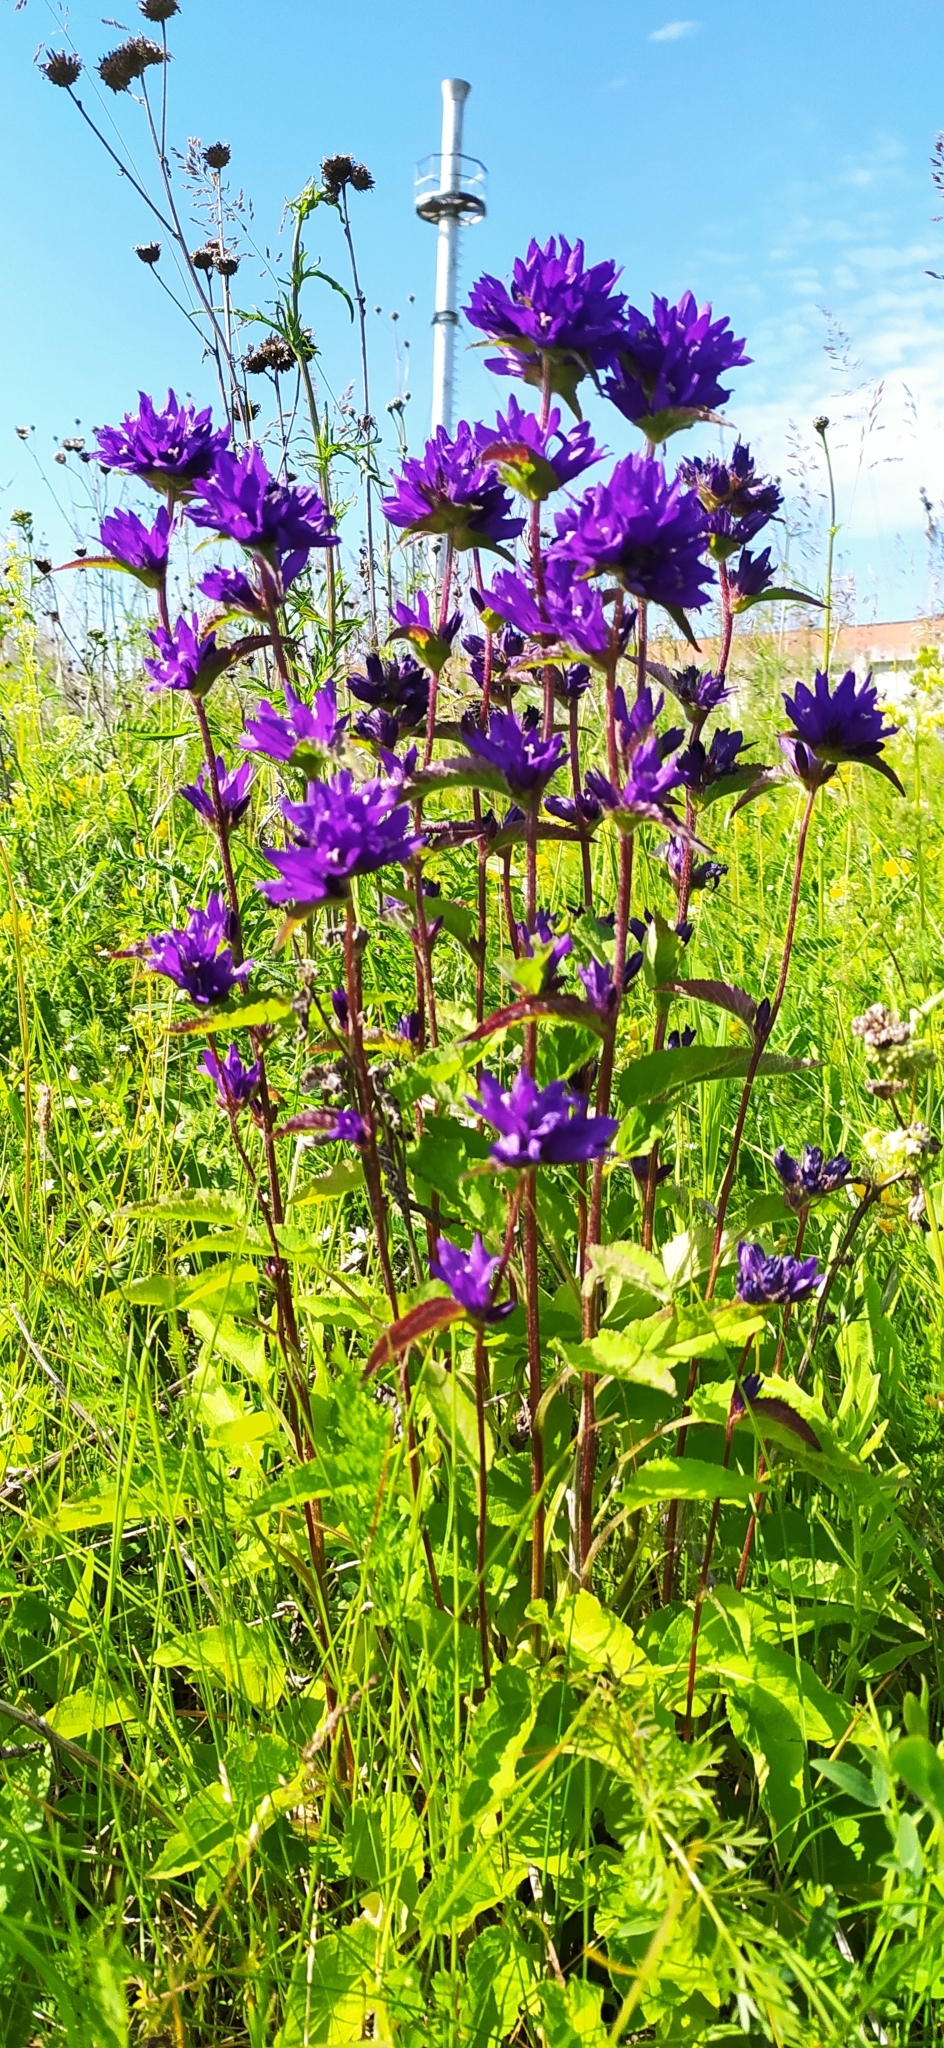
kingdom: Plantae
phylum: Tracheophyta
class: Magnoliopsida
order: Asterales
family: Campanulaceae
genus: Campanula
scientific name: Campanula glomerata
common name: Clustered bellflower
